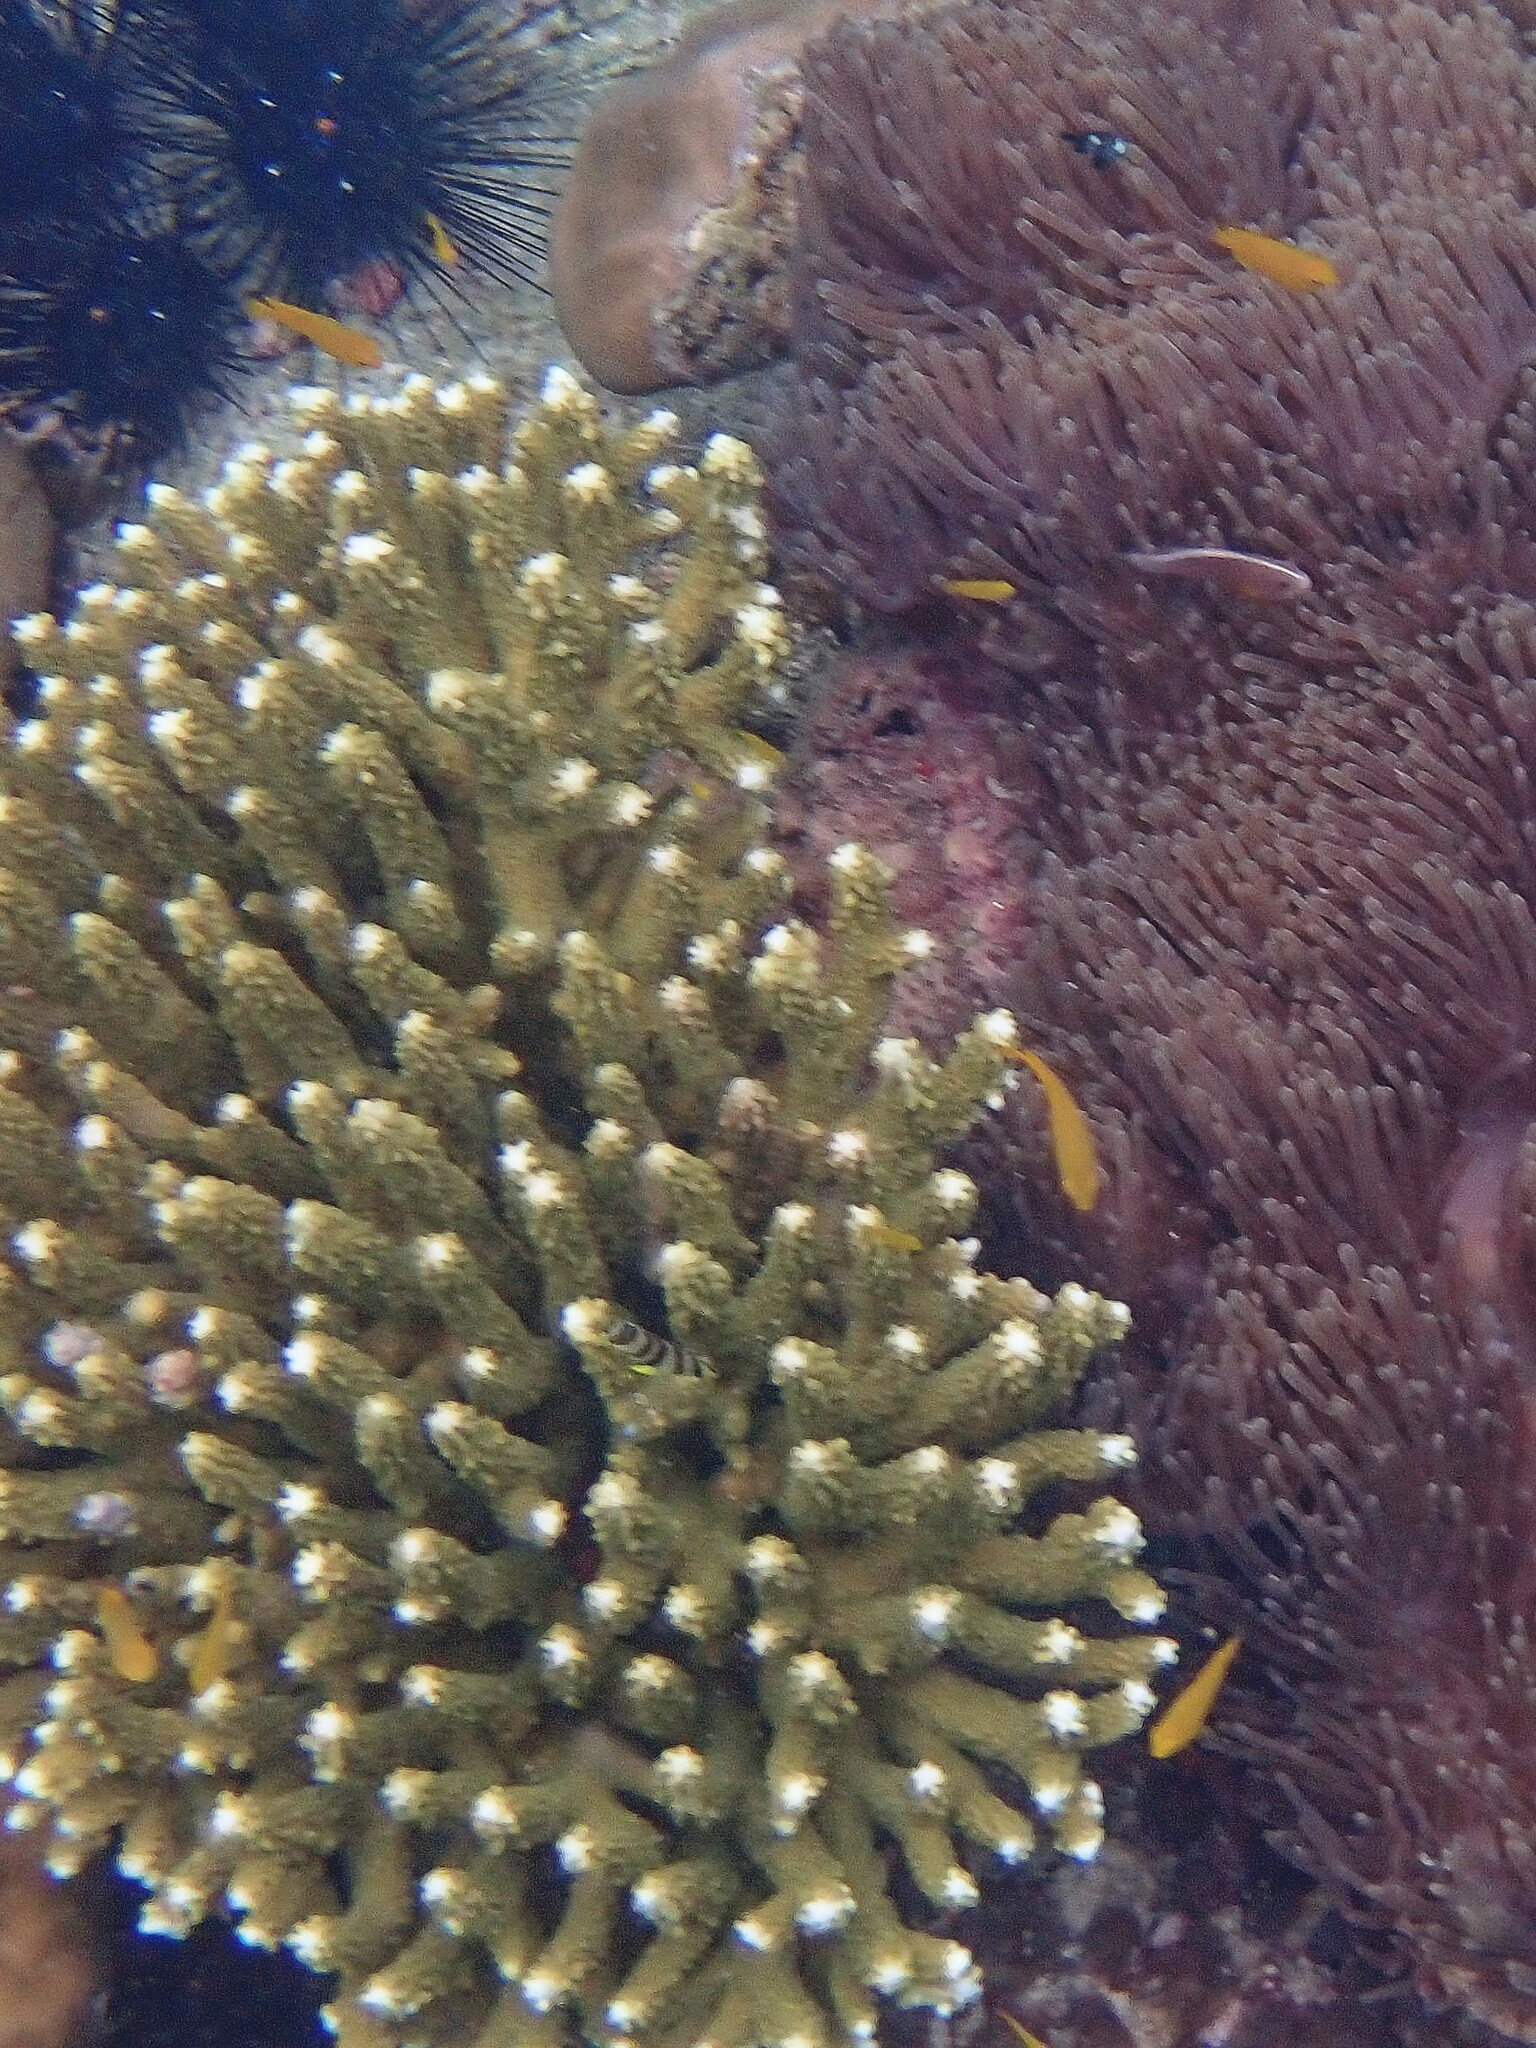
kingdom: Animalia
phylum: Chordata
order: Perciformes
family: Pomacentridae
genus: Pomacentrus
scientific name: Pomacentrus moluccensis
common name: Lemon damsel
